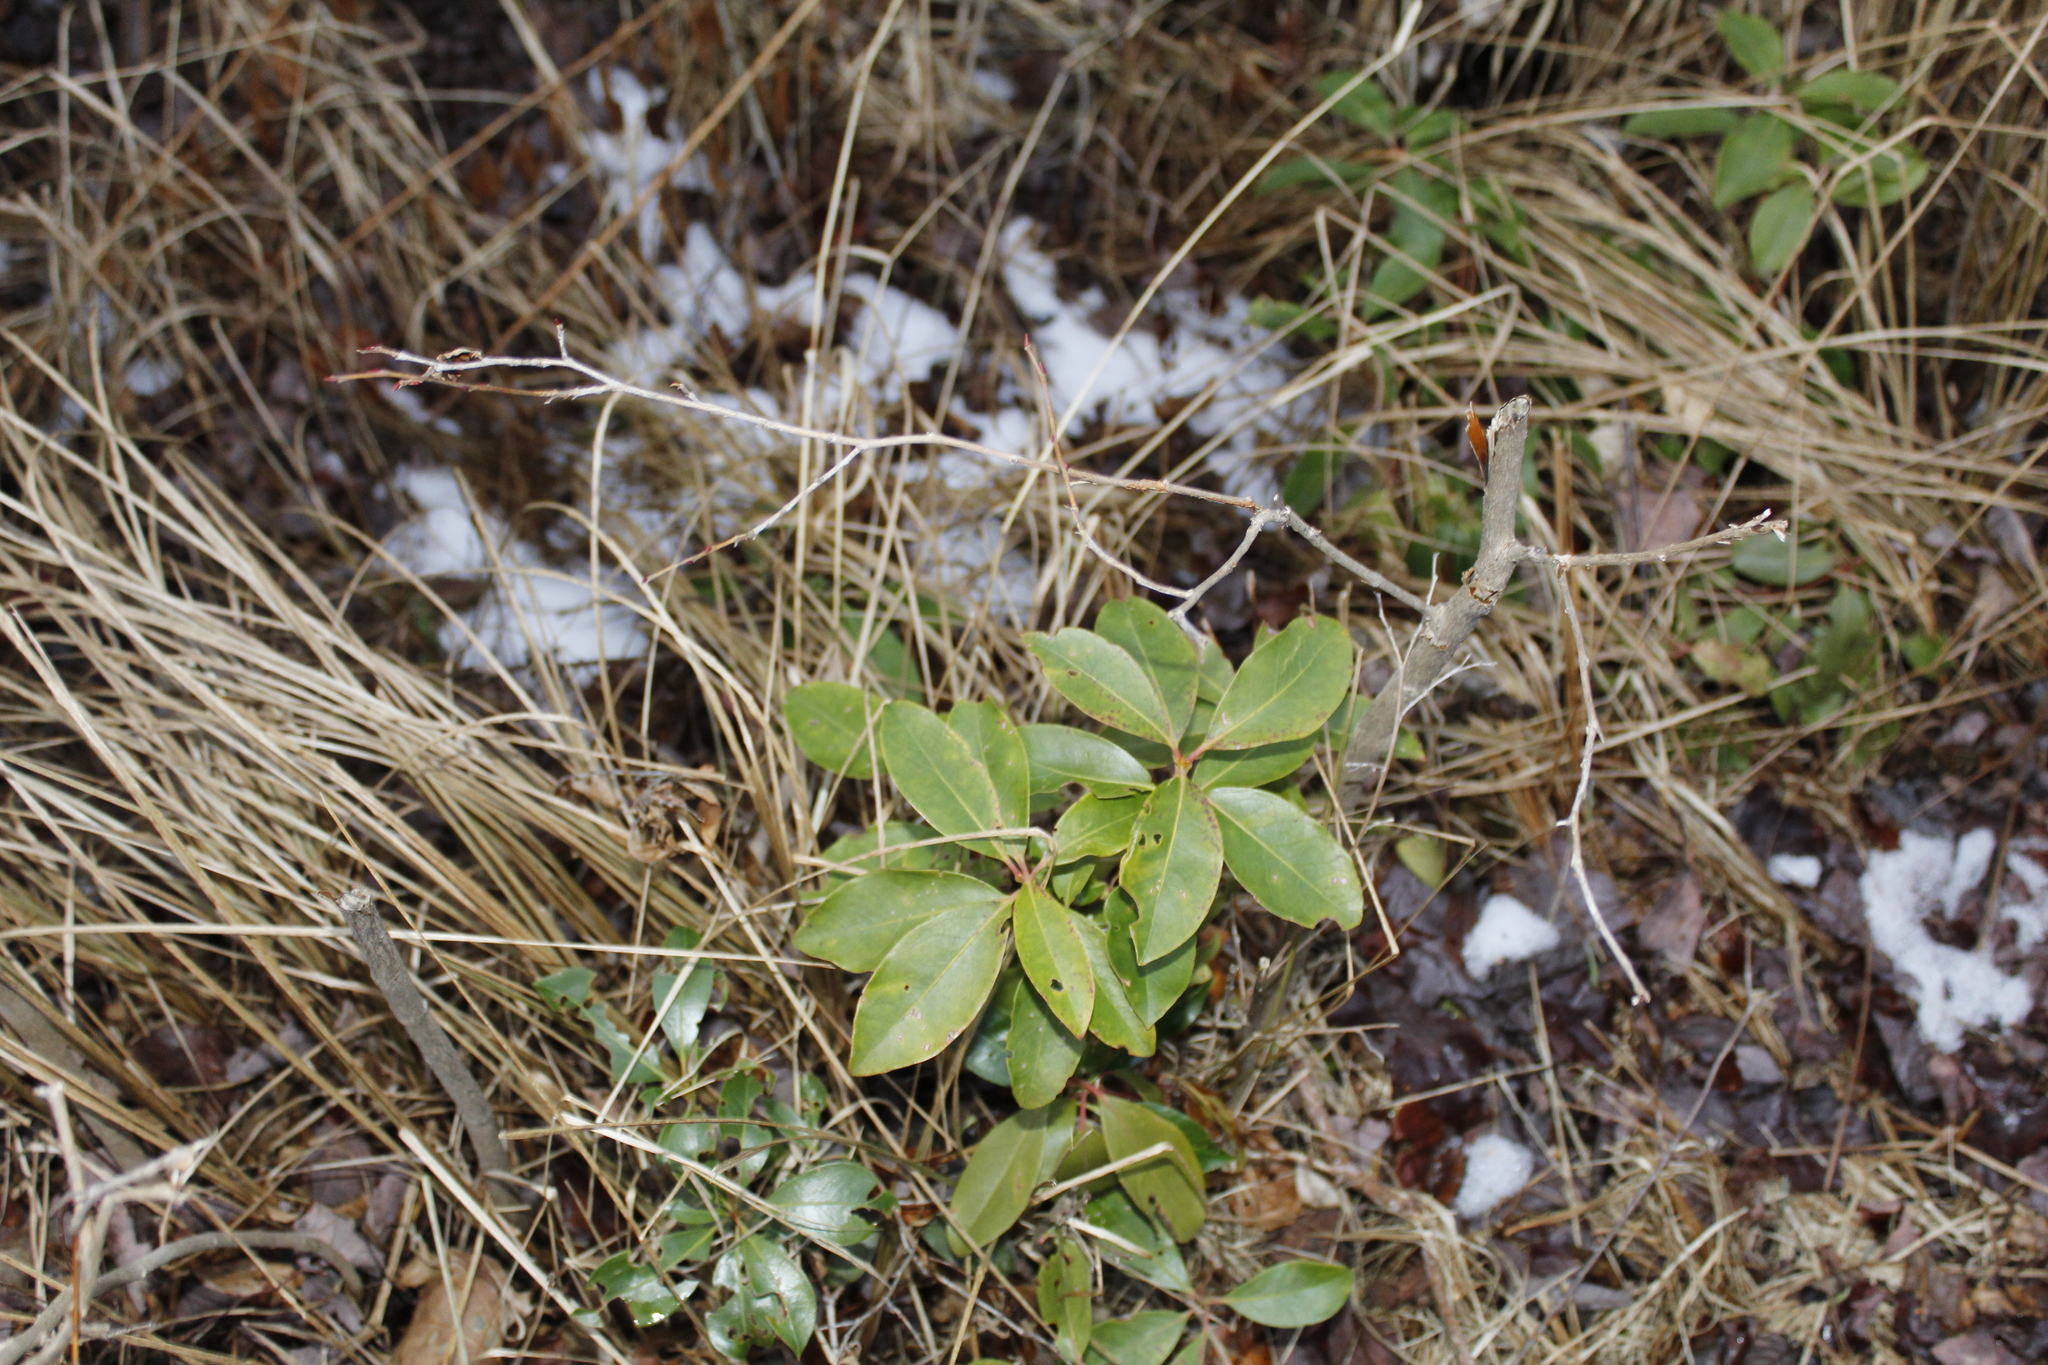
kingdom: Plantae
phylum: Tracheophyta
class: Magnoliopsida
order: Ericales
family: Ericaceae
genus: Kalmia
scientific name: Kalmia latifolia
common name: Mountain-laurel
